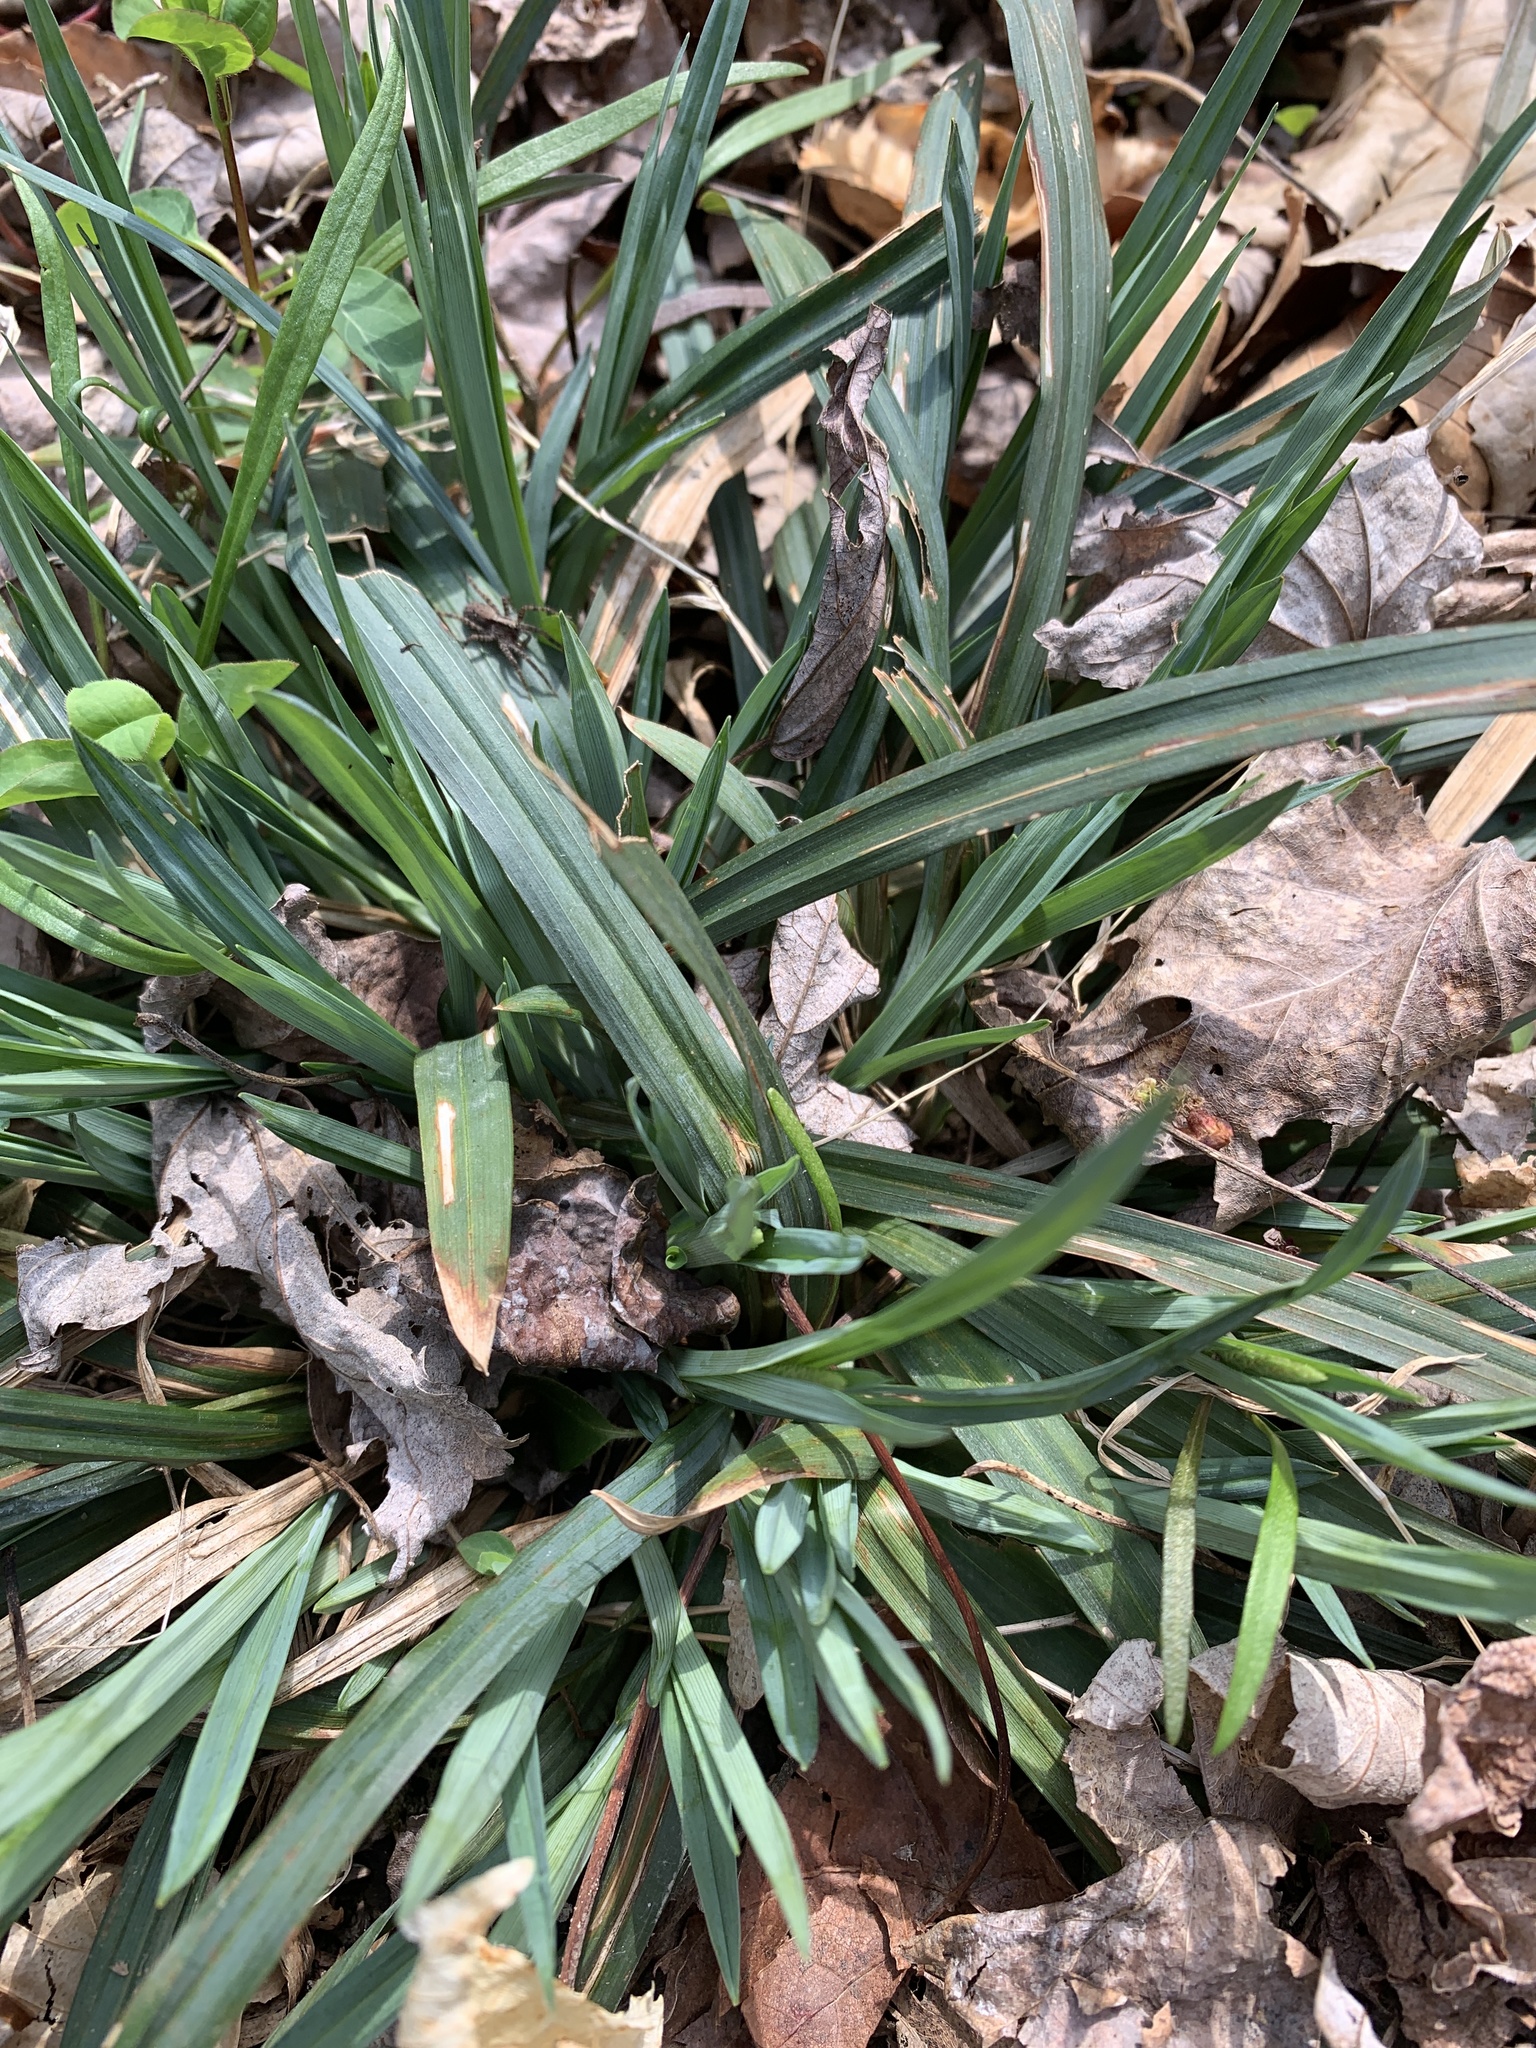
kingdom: Plantae
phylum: Tracheophyta
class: Liliopsida
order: Poales
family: Cyperaceae
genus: Carex
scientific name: Carex albursina
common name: Blunt-scale wood sedge
